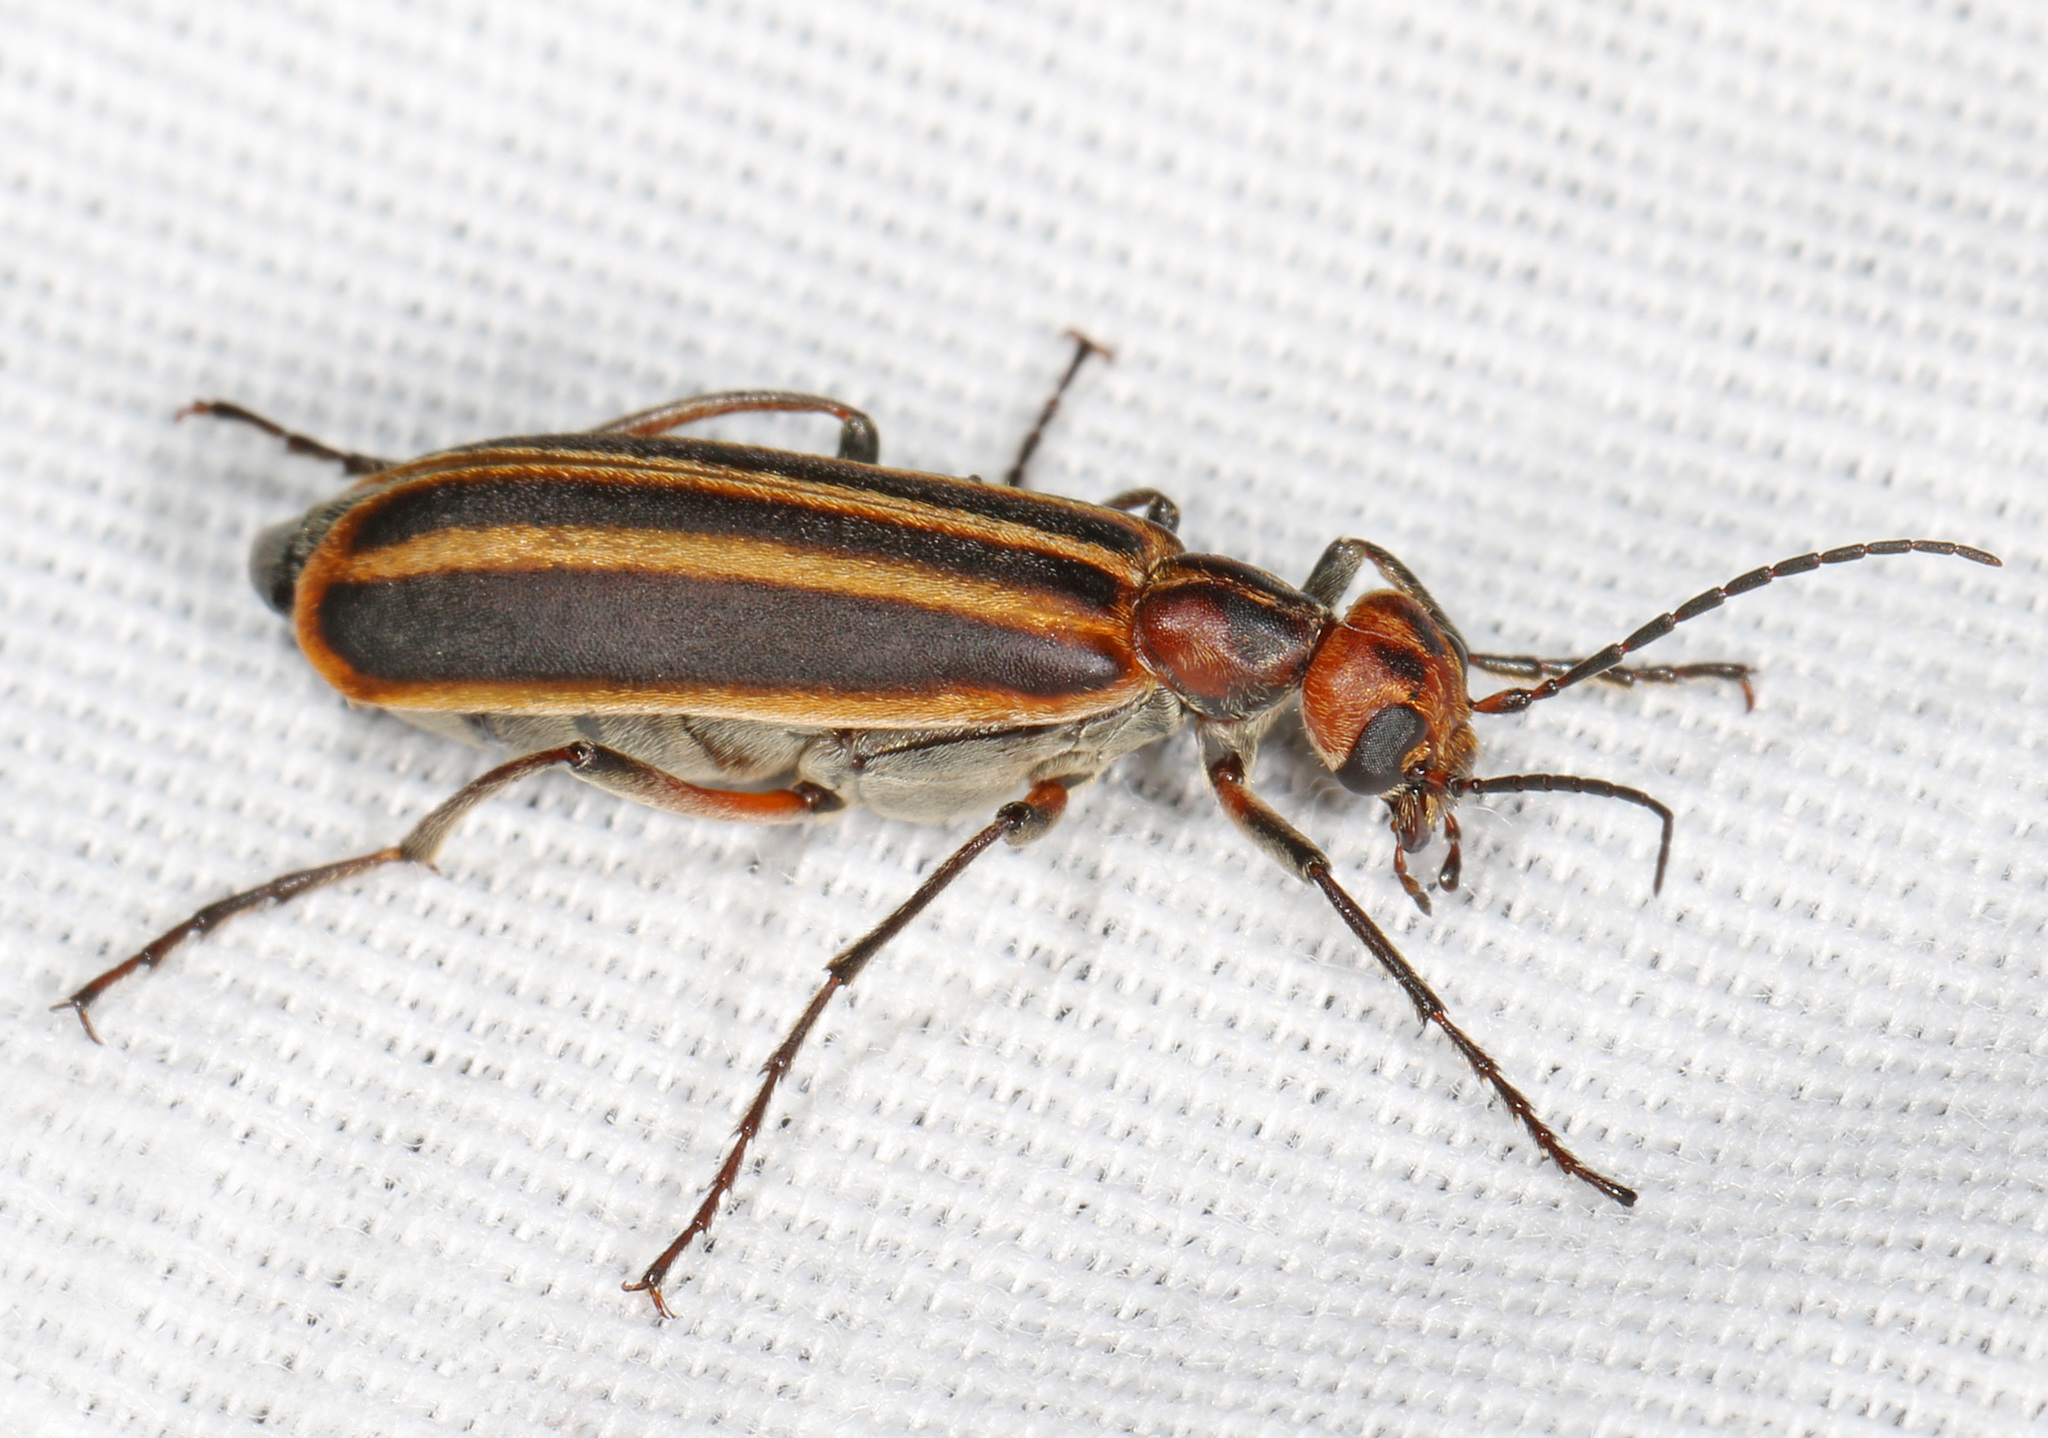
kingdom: Animalia
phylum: Arthropoda
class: Insecta
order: Coleoptera
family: Meloidae
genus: Epicauta
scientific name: Epicauta vittata
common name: Old-fashioned potato beetle
